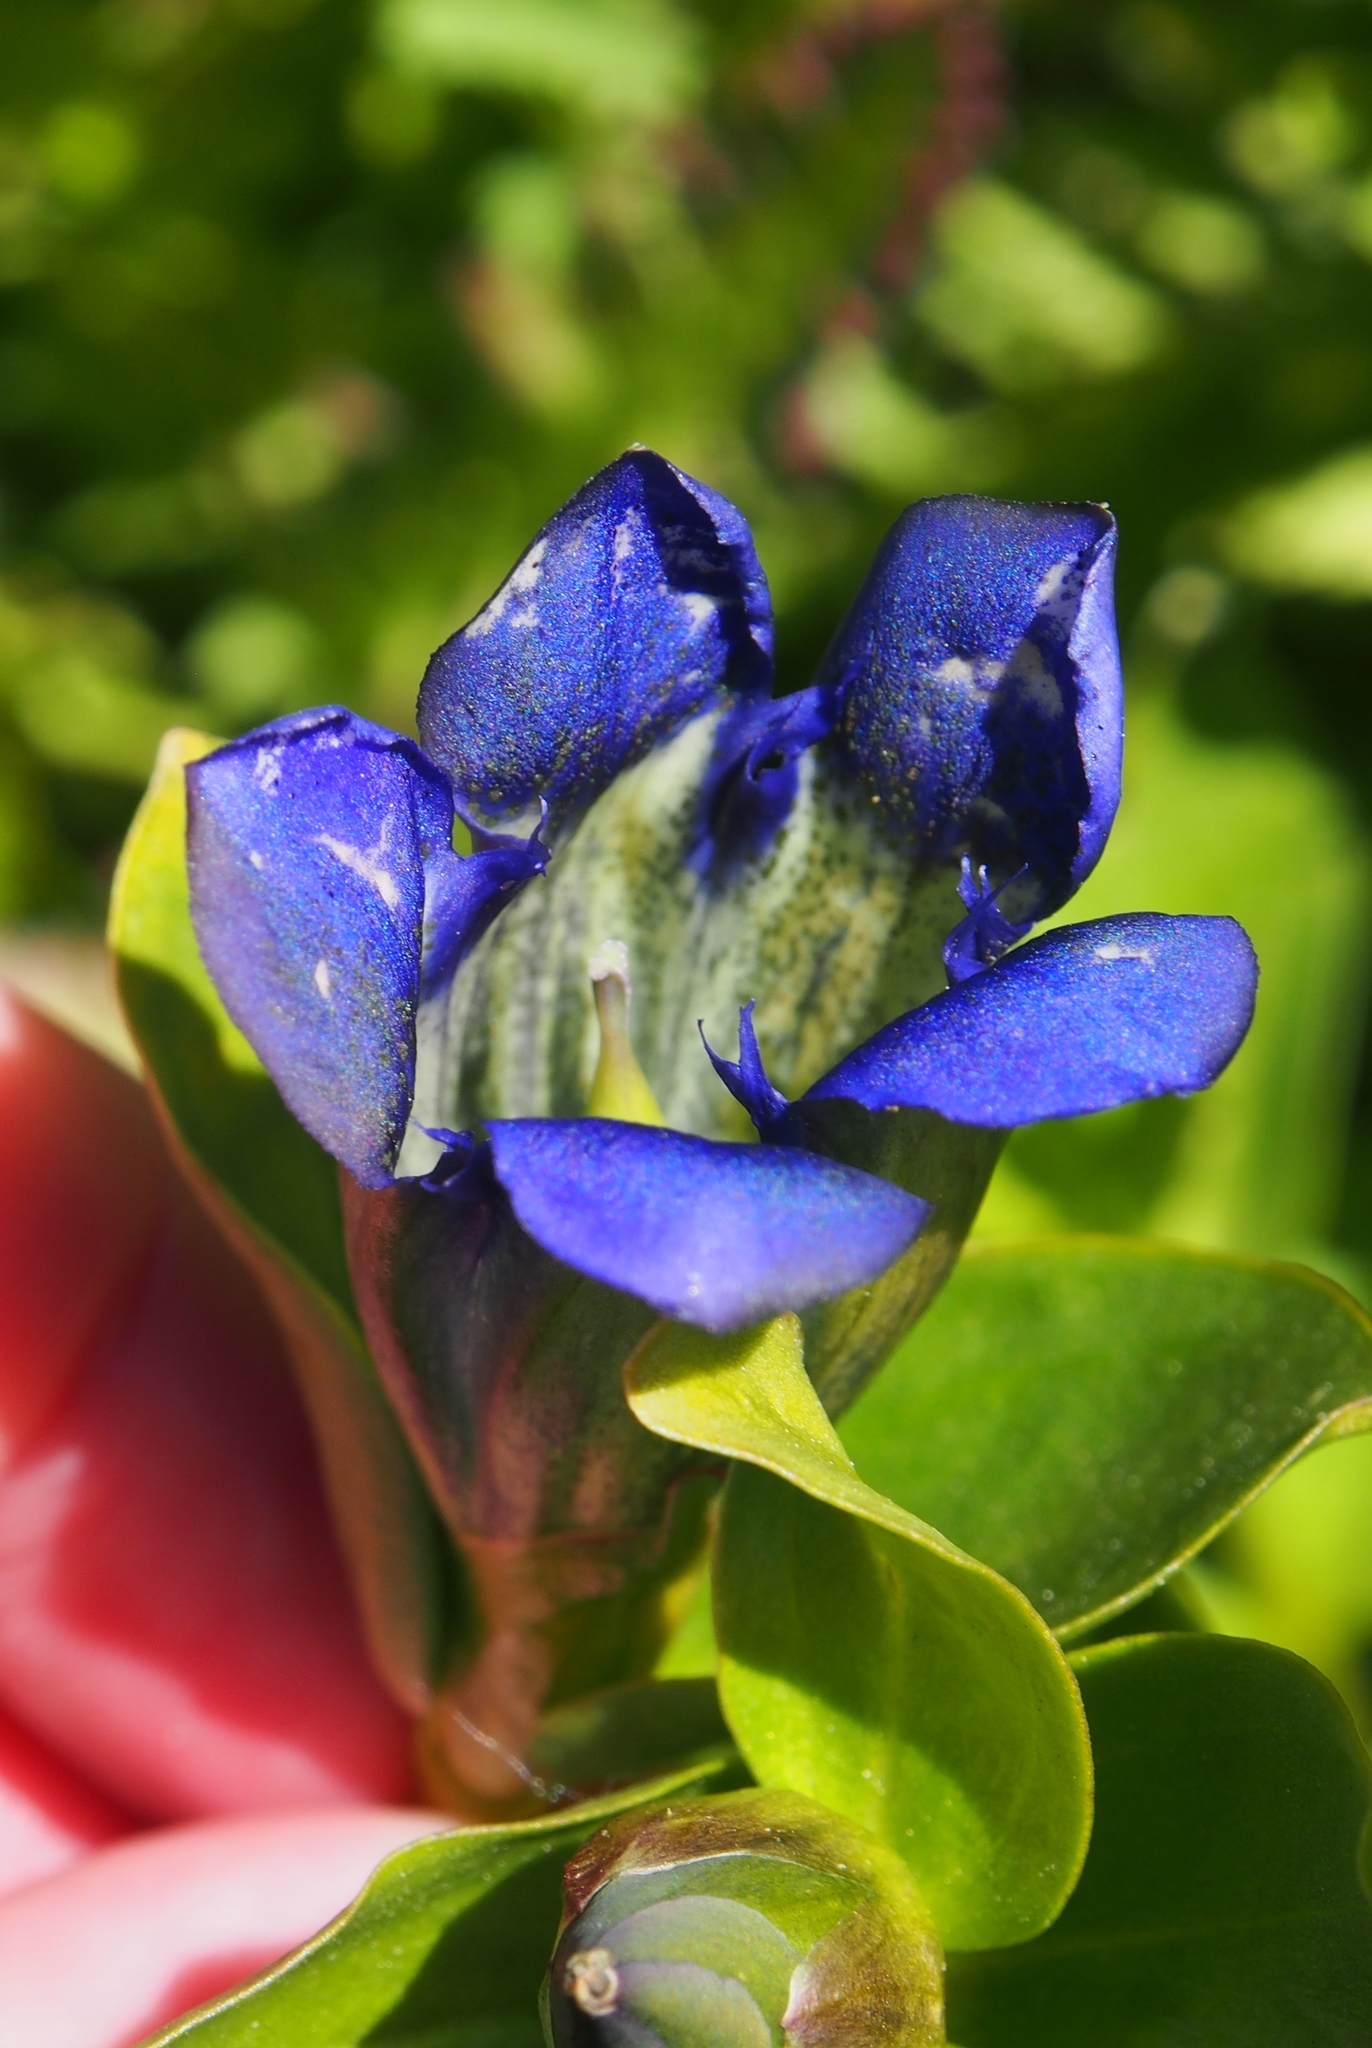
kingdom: Plantae
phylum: Tracheophyta
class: Magnoliopsida
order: Gentianales
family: Gentianaceae
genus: Gentiana
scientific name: Gentiana calycosa
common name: Rainier pleated gentian
